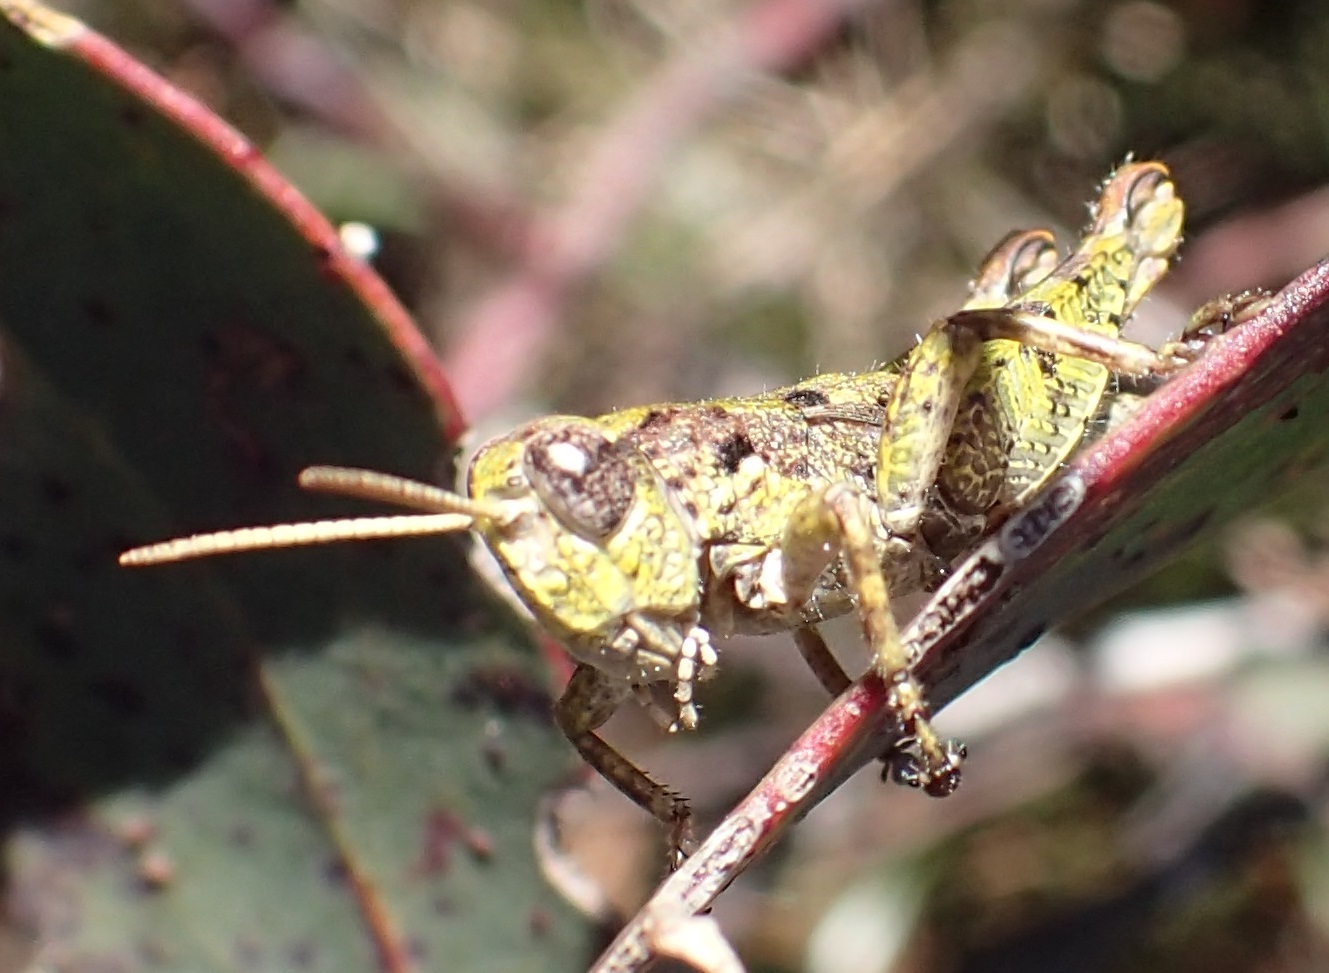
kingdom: Animalia
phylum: Arthropoda
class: Insecta
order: Orthoptera
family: Acrididae
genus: Tasmaniacris
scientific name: Tasmaniacris tasmaniensis
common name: Tasmanian grasshopper
